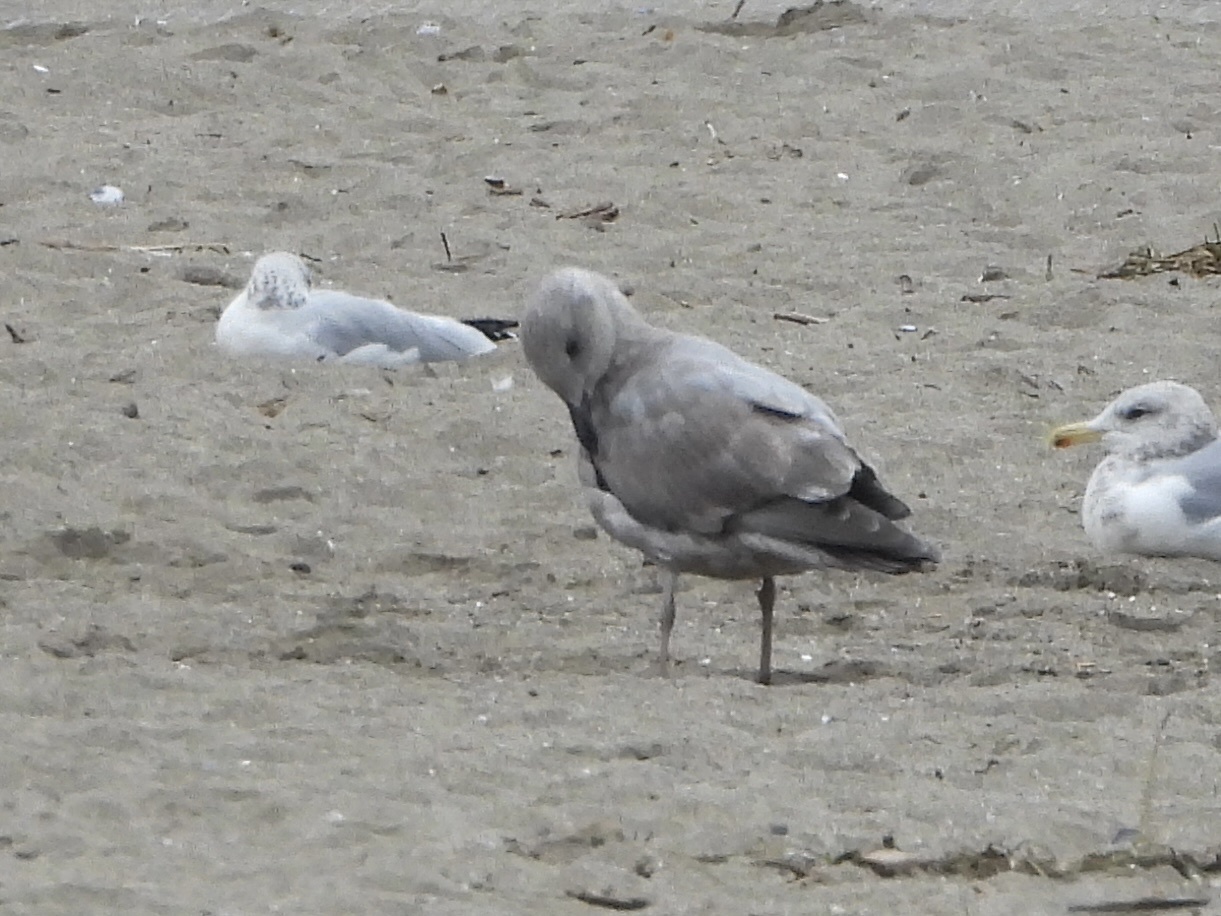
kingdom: Animalia
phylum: Chordata
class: Aves
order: Charadriiformes
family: Laridae
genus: Larus
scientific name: Larus
